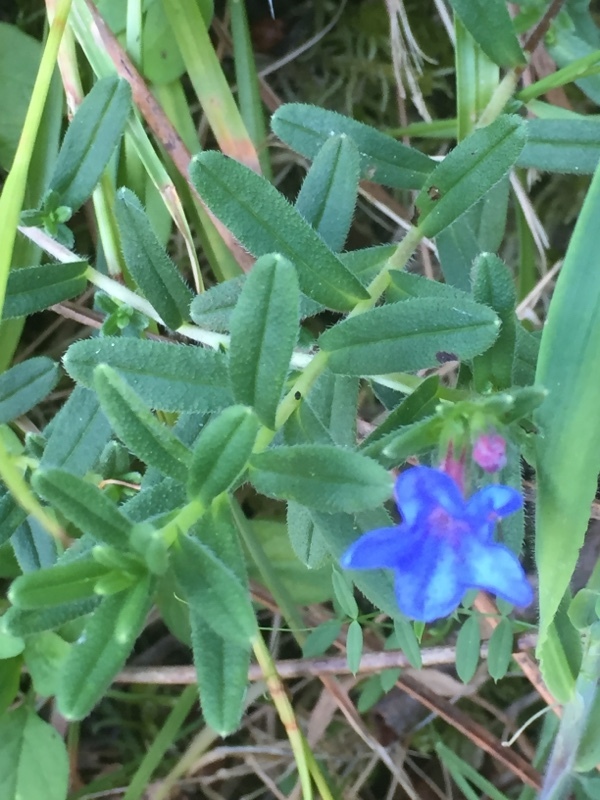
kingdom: Plantae
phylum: Tracheophyta
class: Magnoliopsida
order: Boraginales
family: Boraginaceae
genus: Glandora
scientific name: Glandora prostrata
